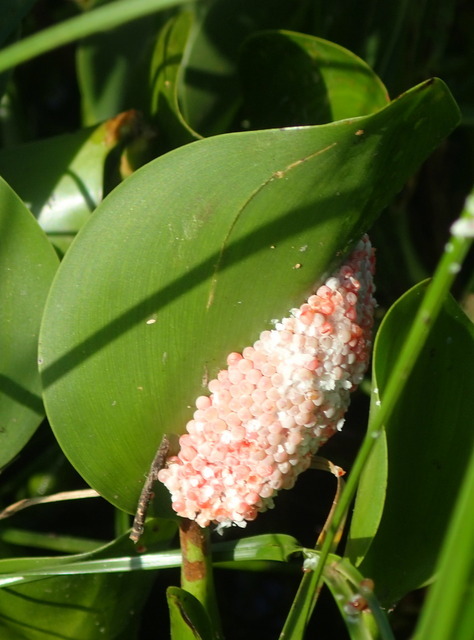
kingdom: Animalia
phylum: Mollusca
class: Gastropoda
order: Architaenioglossa
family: Ampullariidae
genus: Pomacea
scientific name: Pomacea maculata
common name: Giant applesnail
